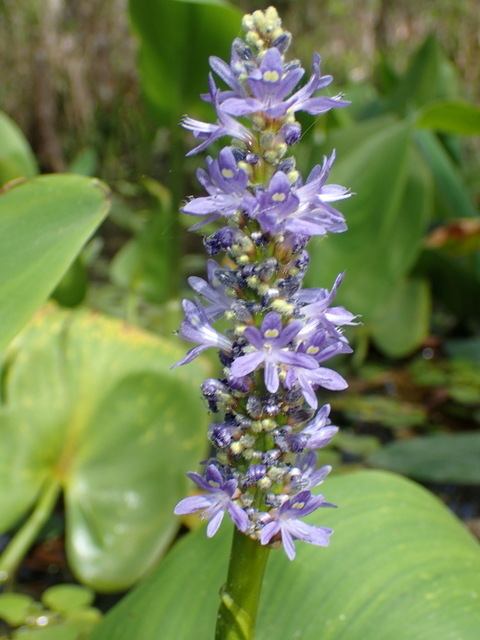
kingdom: Plantae
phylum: Tracheophyta
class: Liliopsida
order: Commelinales
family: Pontederiaceae
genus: Pontederia
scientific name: Pontederia cordata
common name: Pickerelweed
